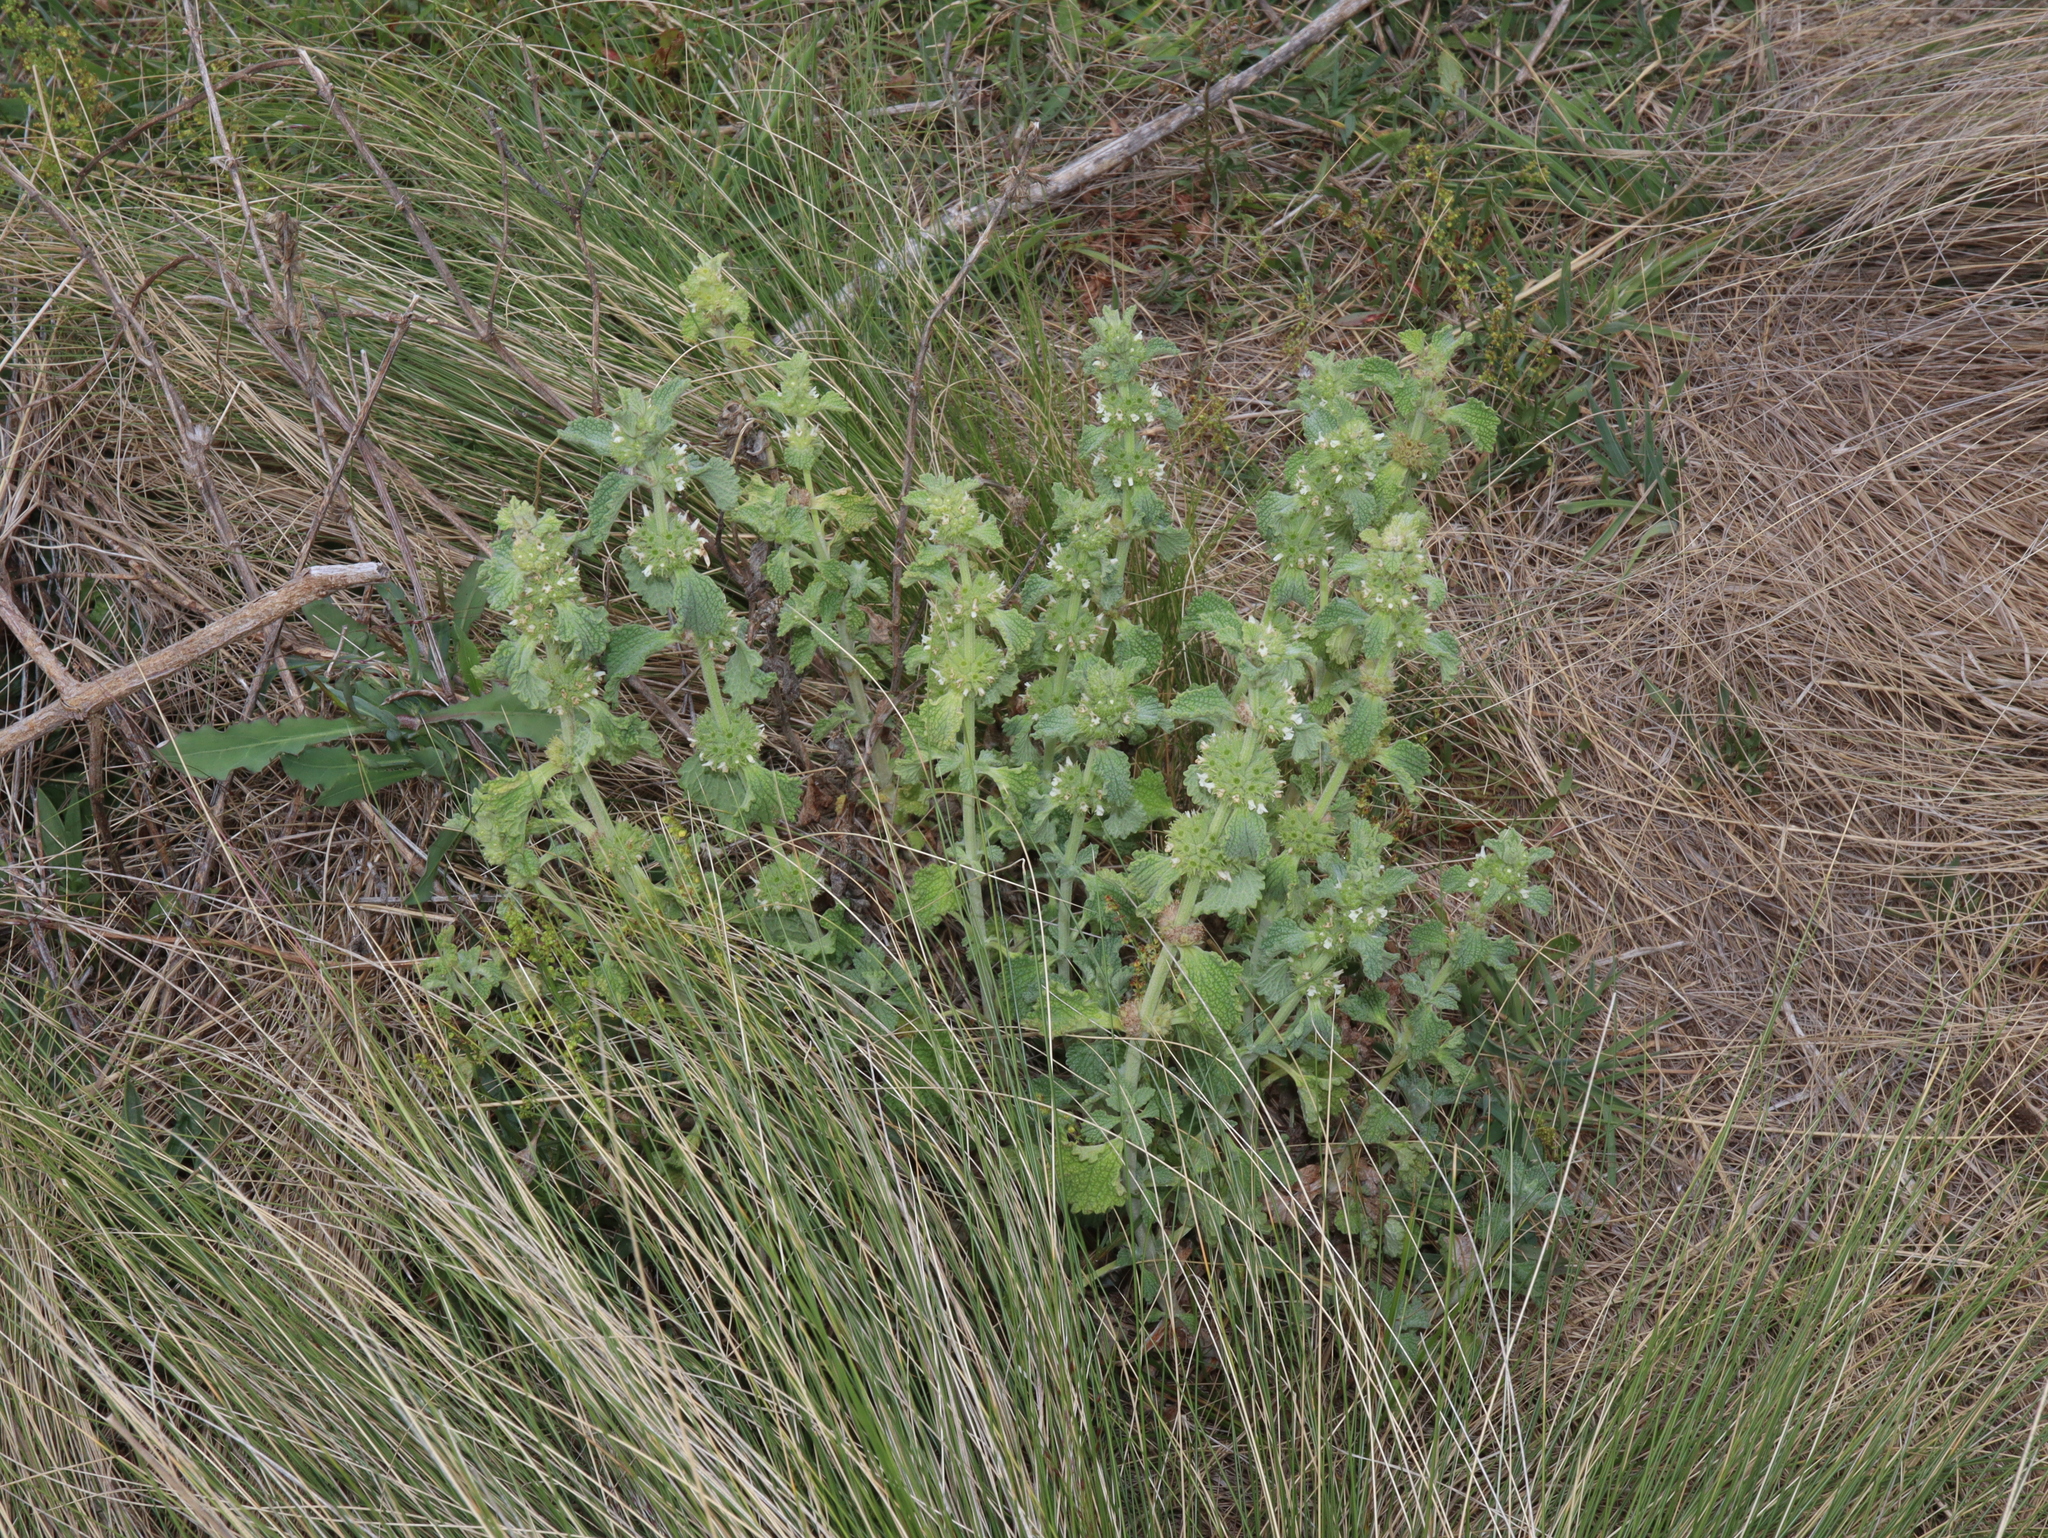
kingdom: Plantae
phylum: Tracheophyta
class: Magnoliopsida
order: Lamiales
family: Lamiaceae
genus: Marrubium
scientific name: Marrubium vulgare
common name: Horehound
